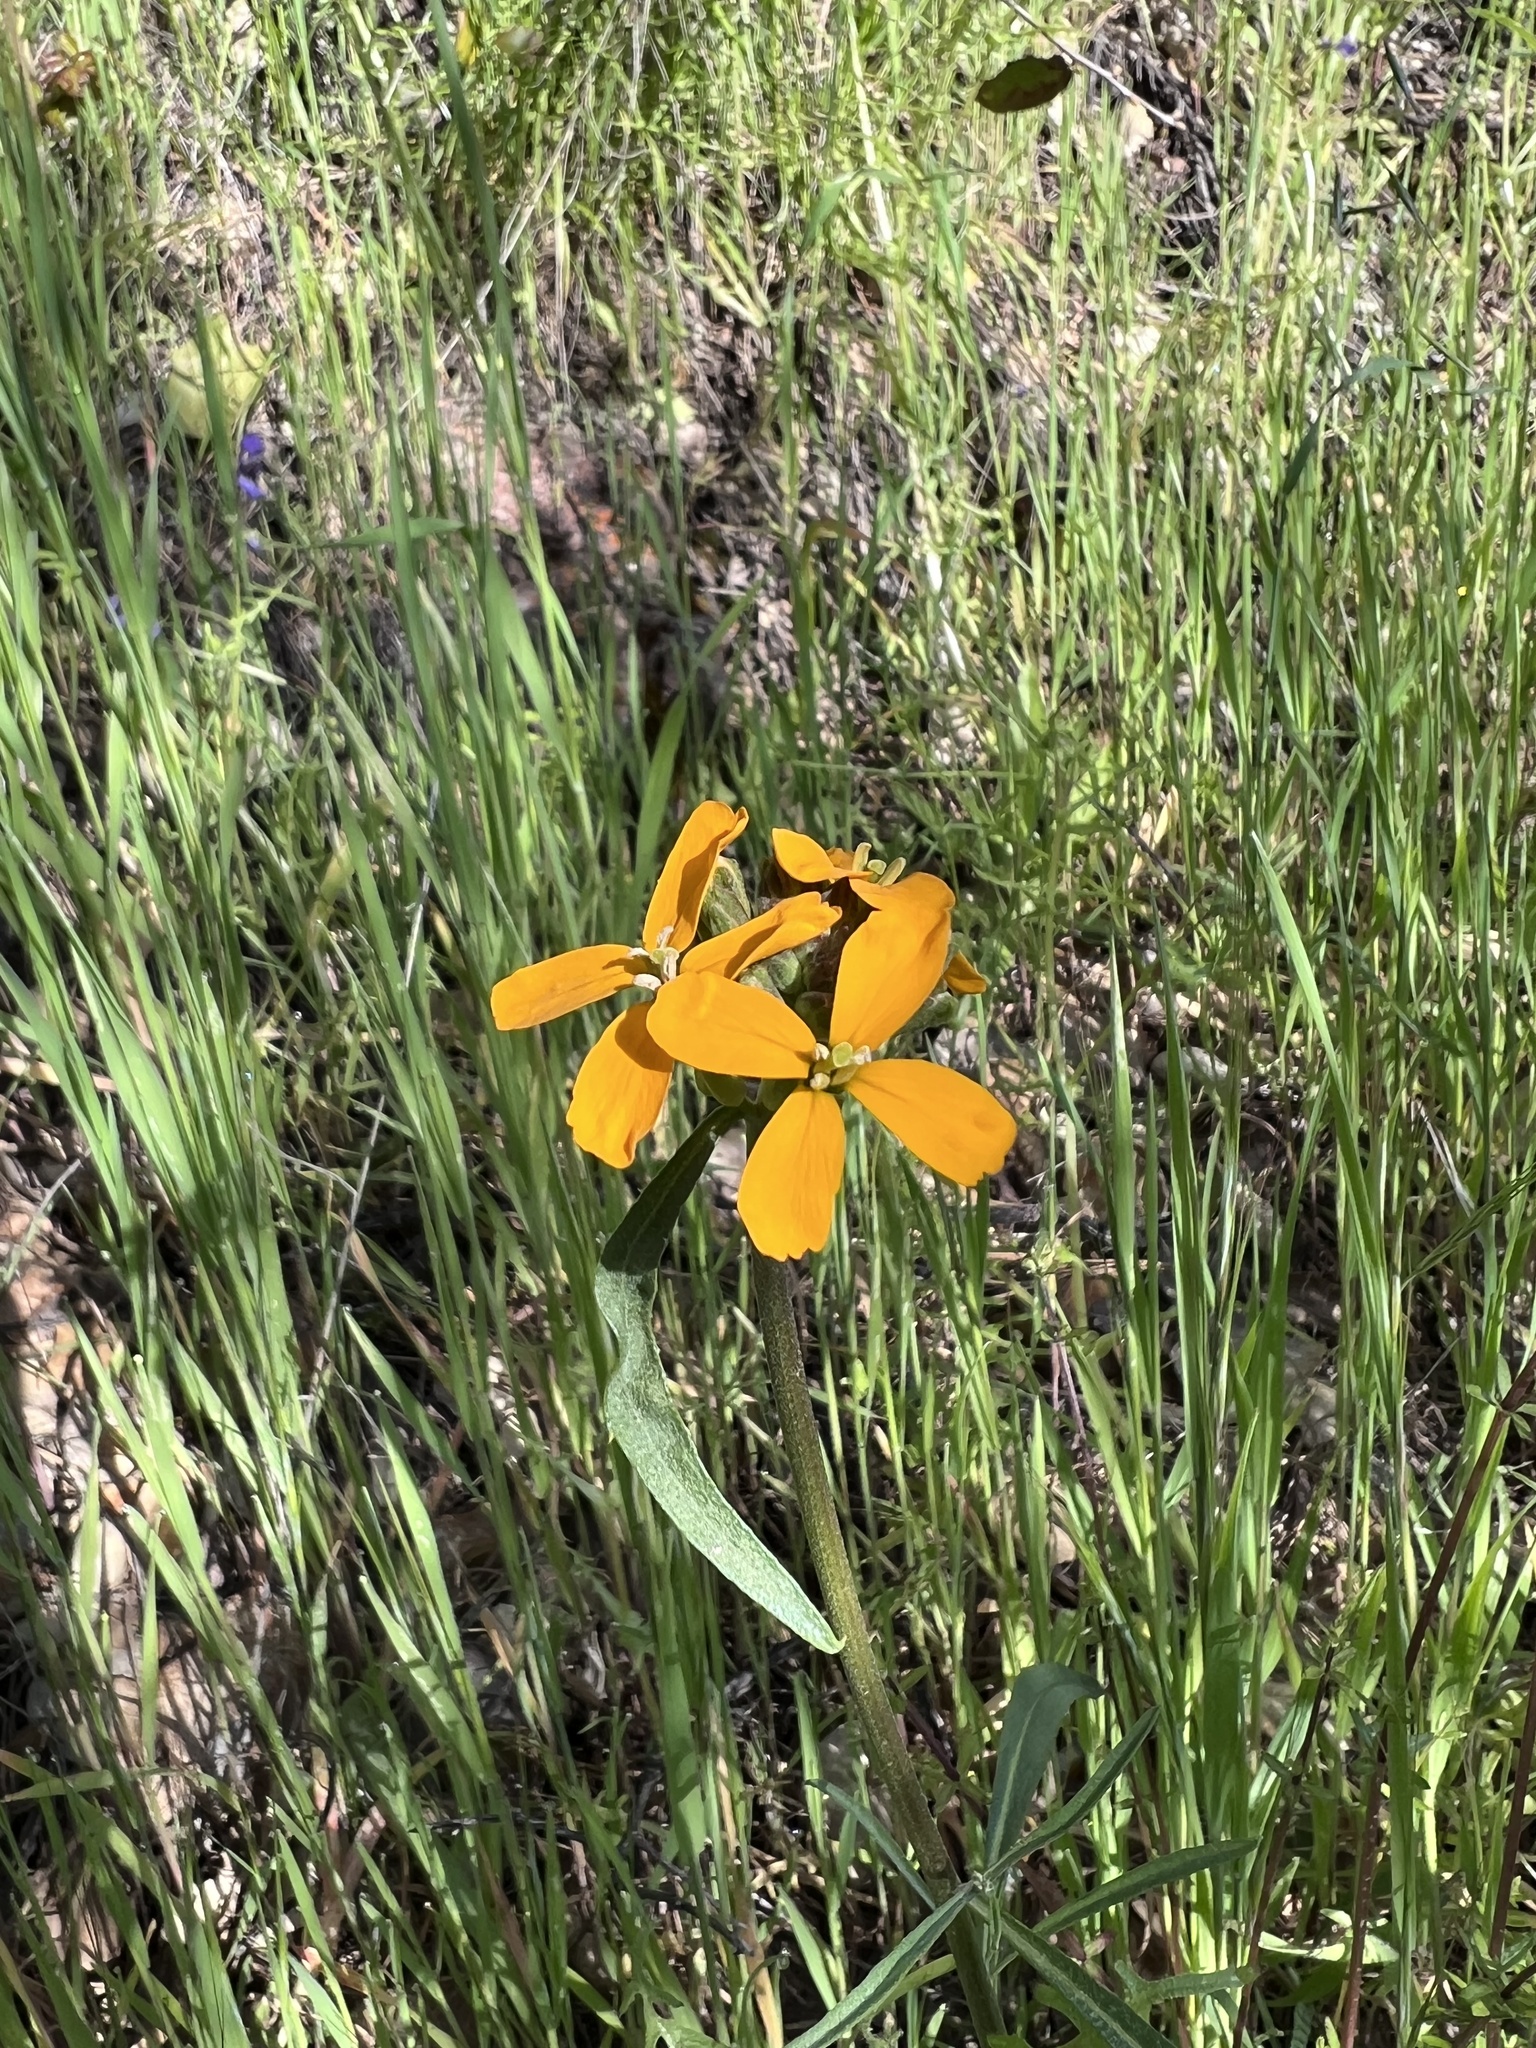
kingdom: Plantae
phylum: Tracheophyta
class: Magnoliopsida
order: Brassicales
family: Brassicaceae
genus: Erysimum
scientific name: Erysimum capitatum
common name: Western wallflower
